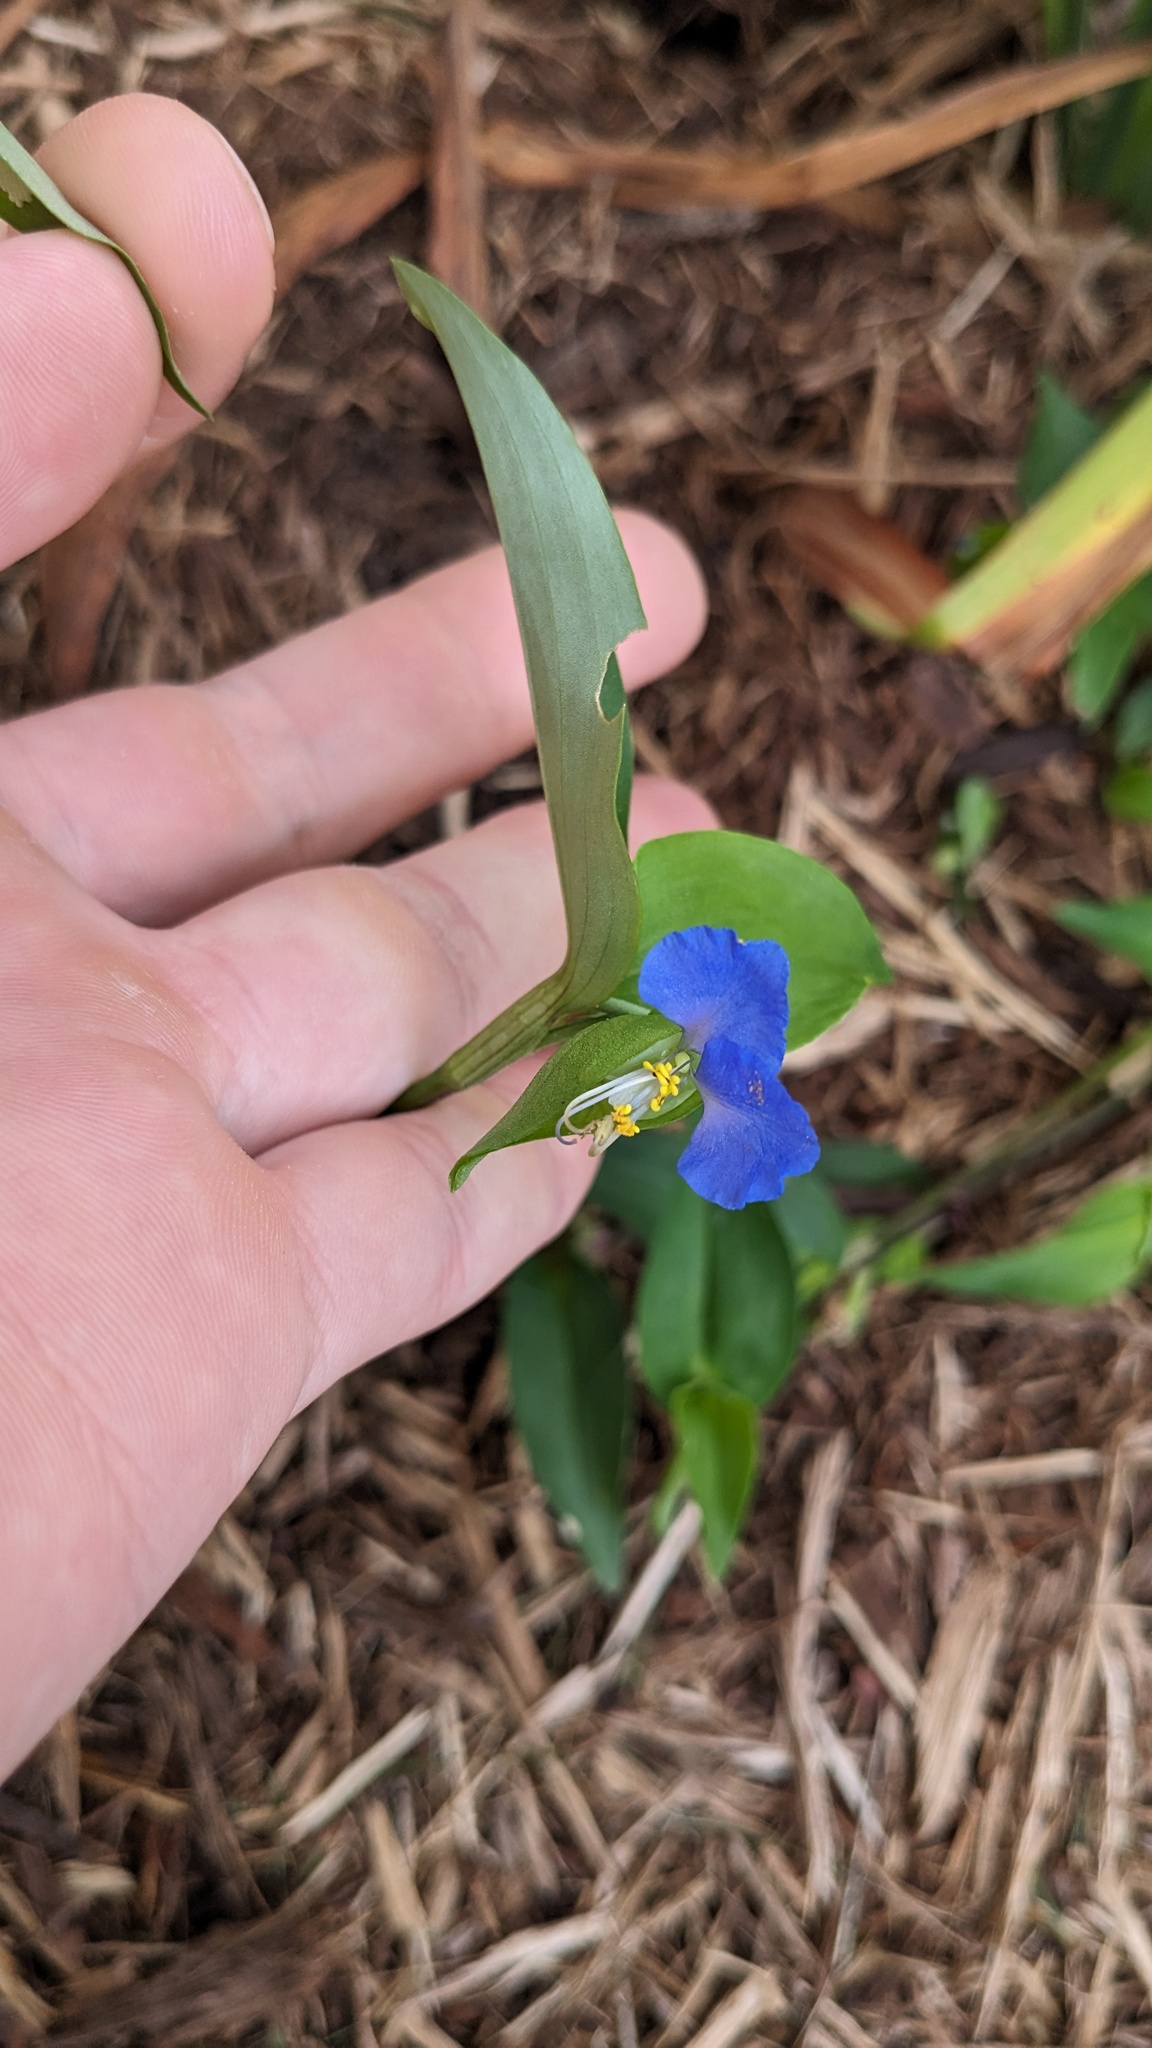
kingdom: Plantae
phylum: Tracheophyta
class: Liliopsida
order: Commelinales
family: Commelinaceae
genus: Commelina
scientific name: Commelina communis
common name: Asiatic dayflower
